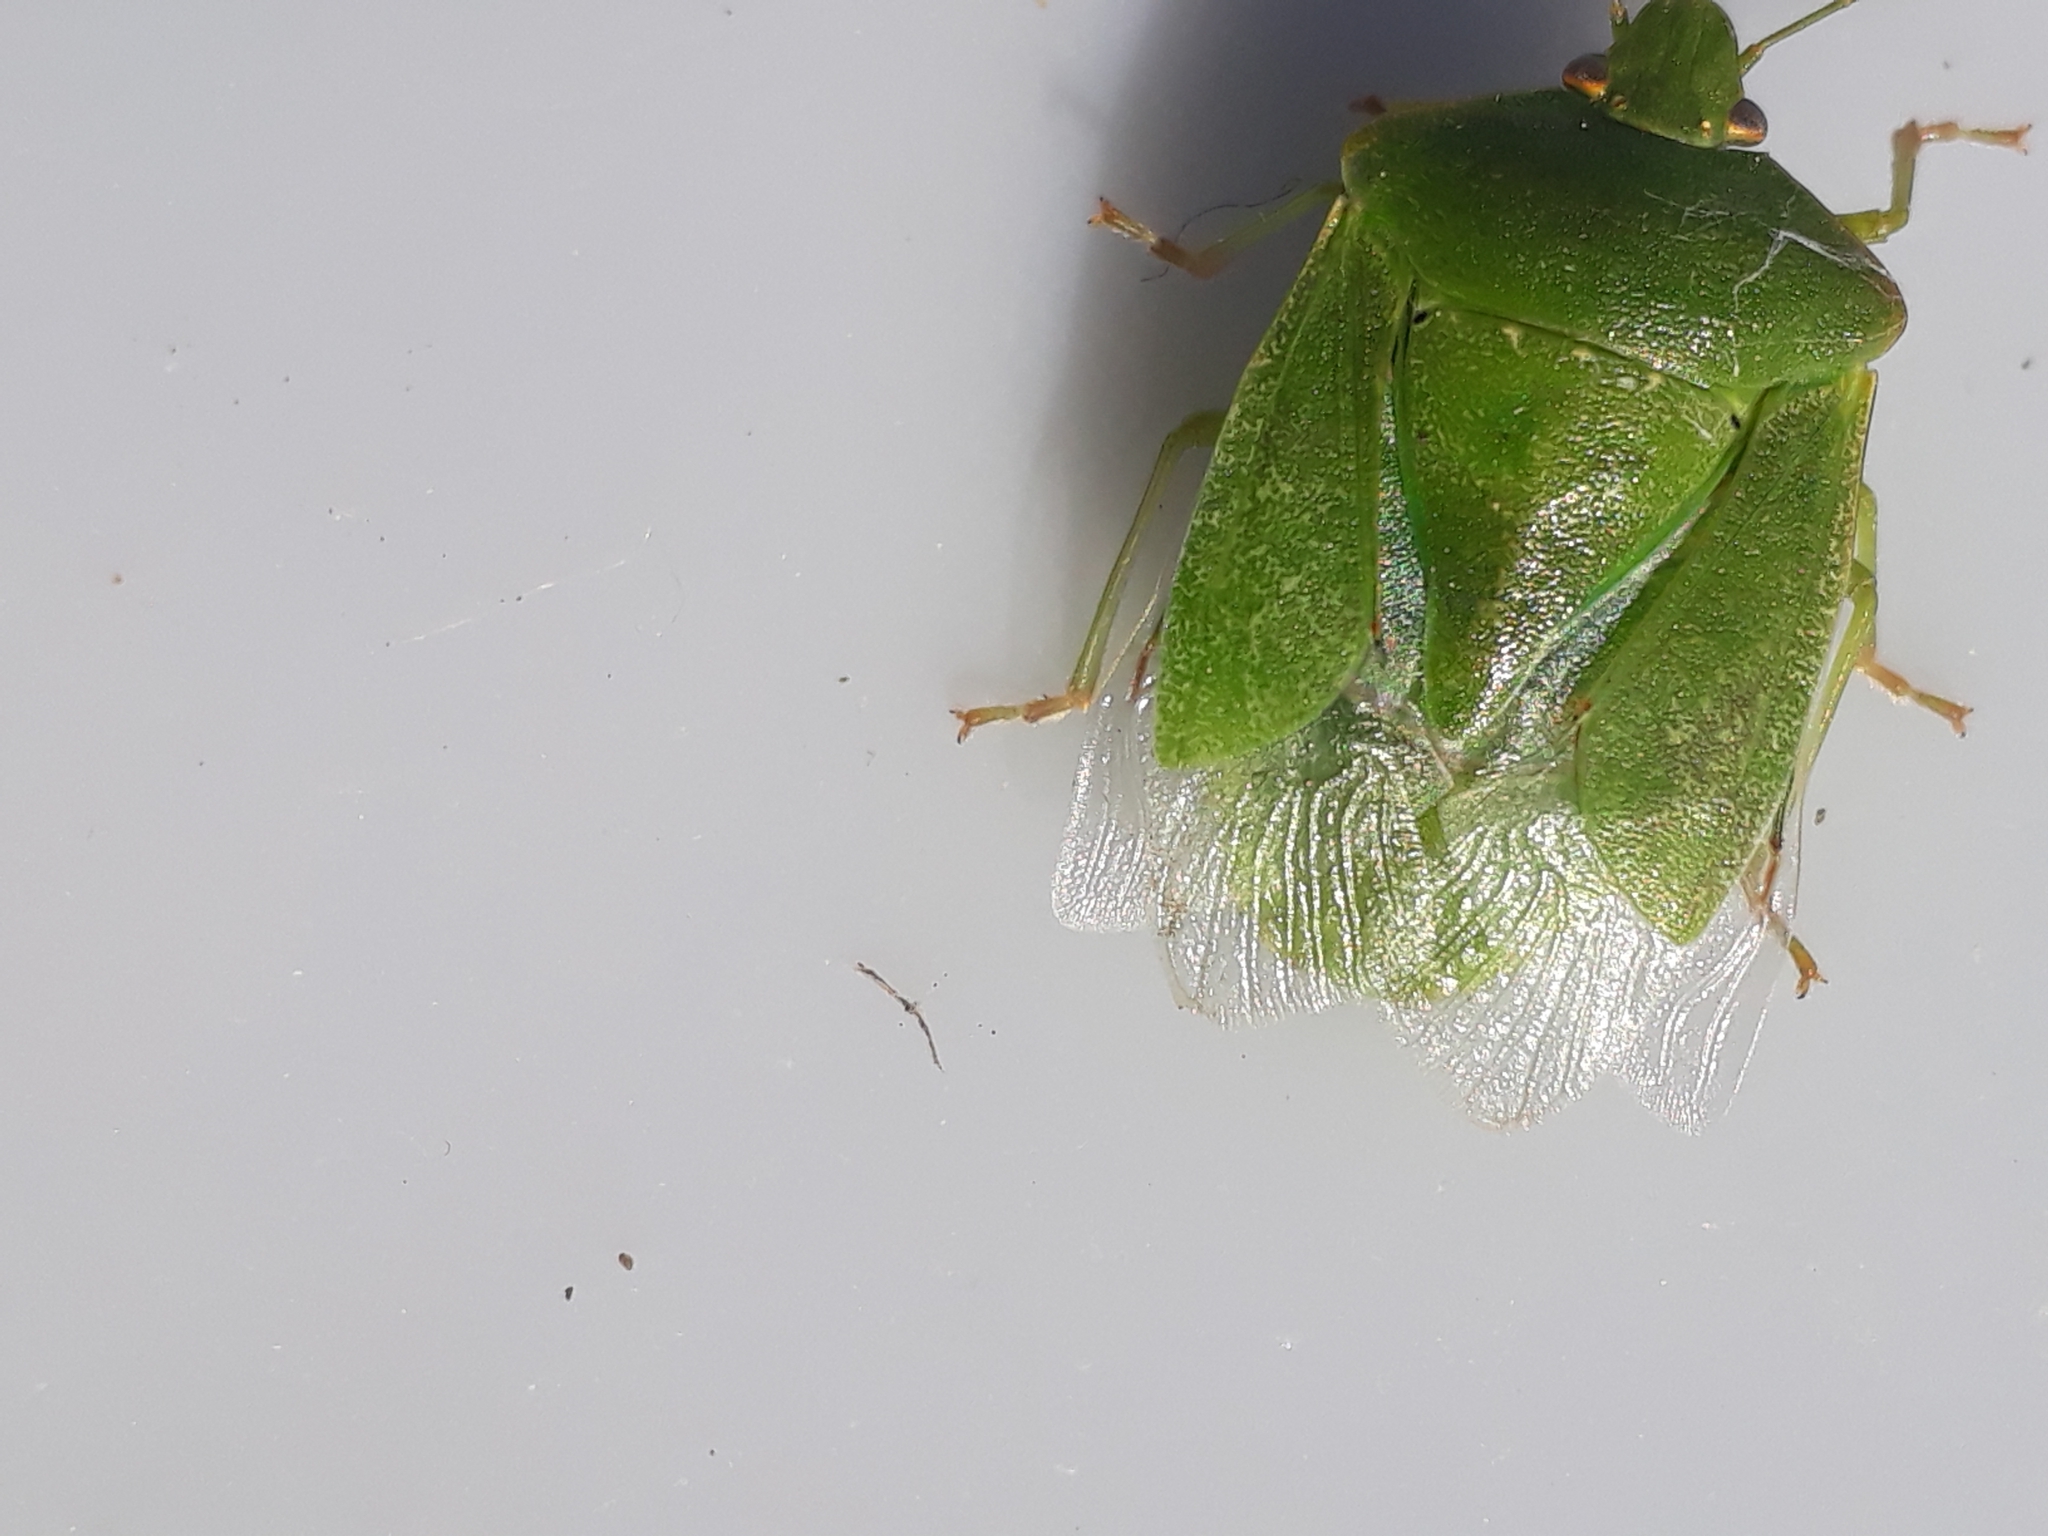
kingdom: Animalia
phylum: Arthropoda
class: Insecta
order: Hemiptera
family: Pentatomidae
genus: Nezara
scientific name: Nezara viridula
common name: Southern green stink bug
